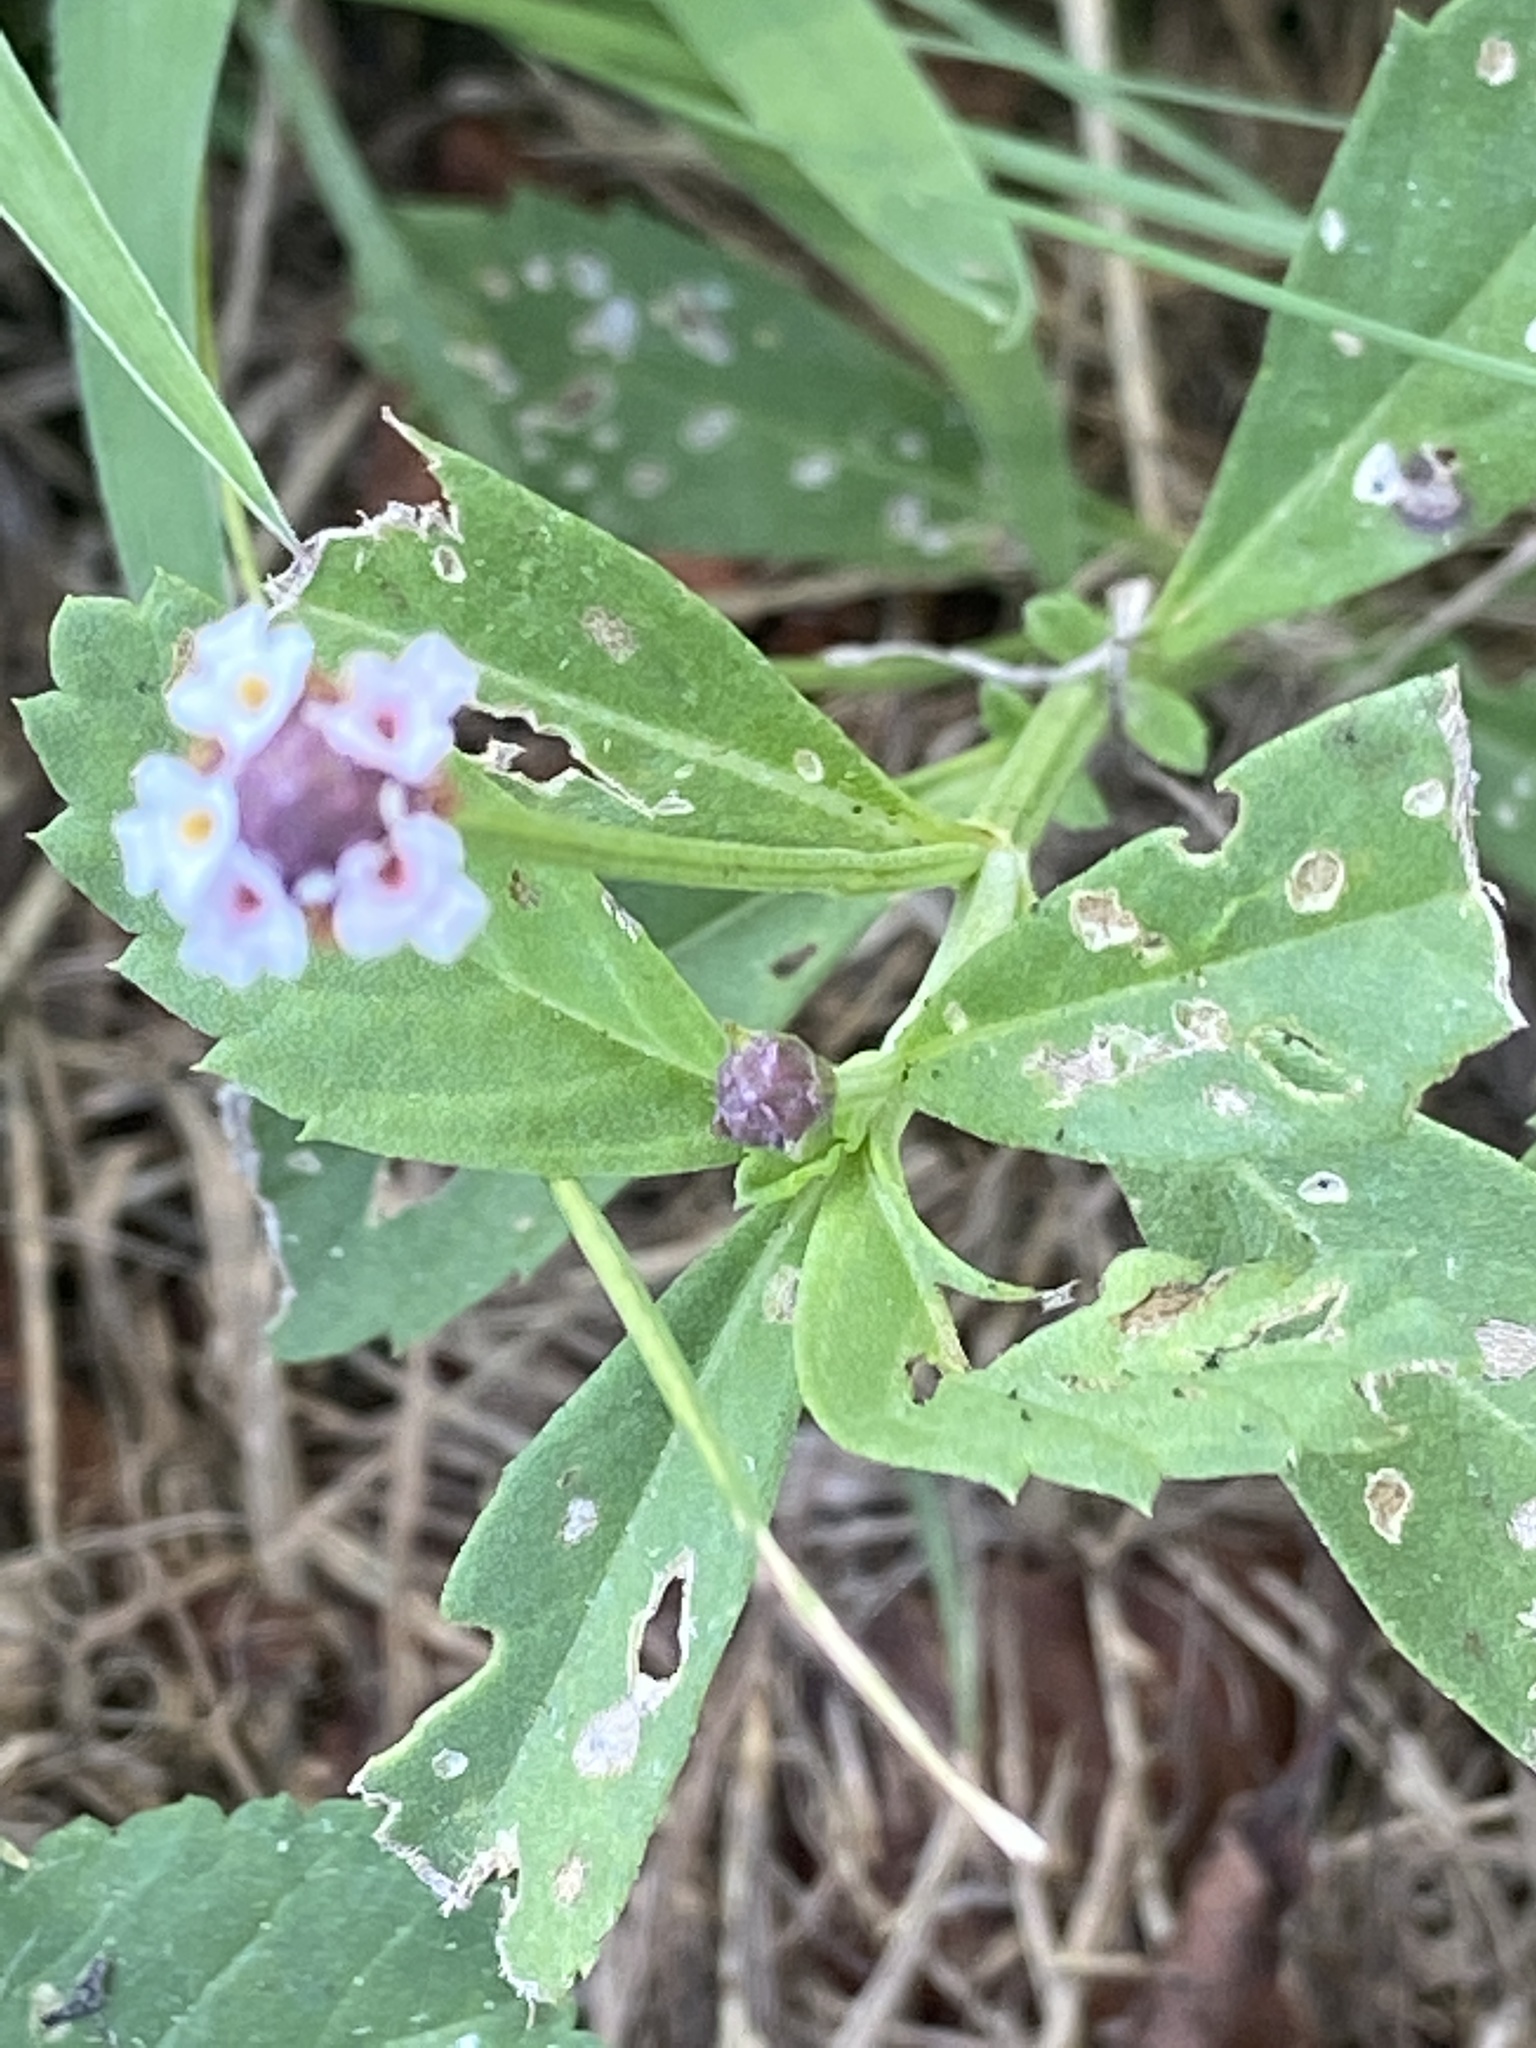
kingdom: Plantae
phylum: Tracheophyta
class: Magnoliopsida
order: Lamiales
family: Verbenaceae
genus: Phyla
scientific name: Phyla nodiflora
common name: Frogfruit
